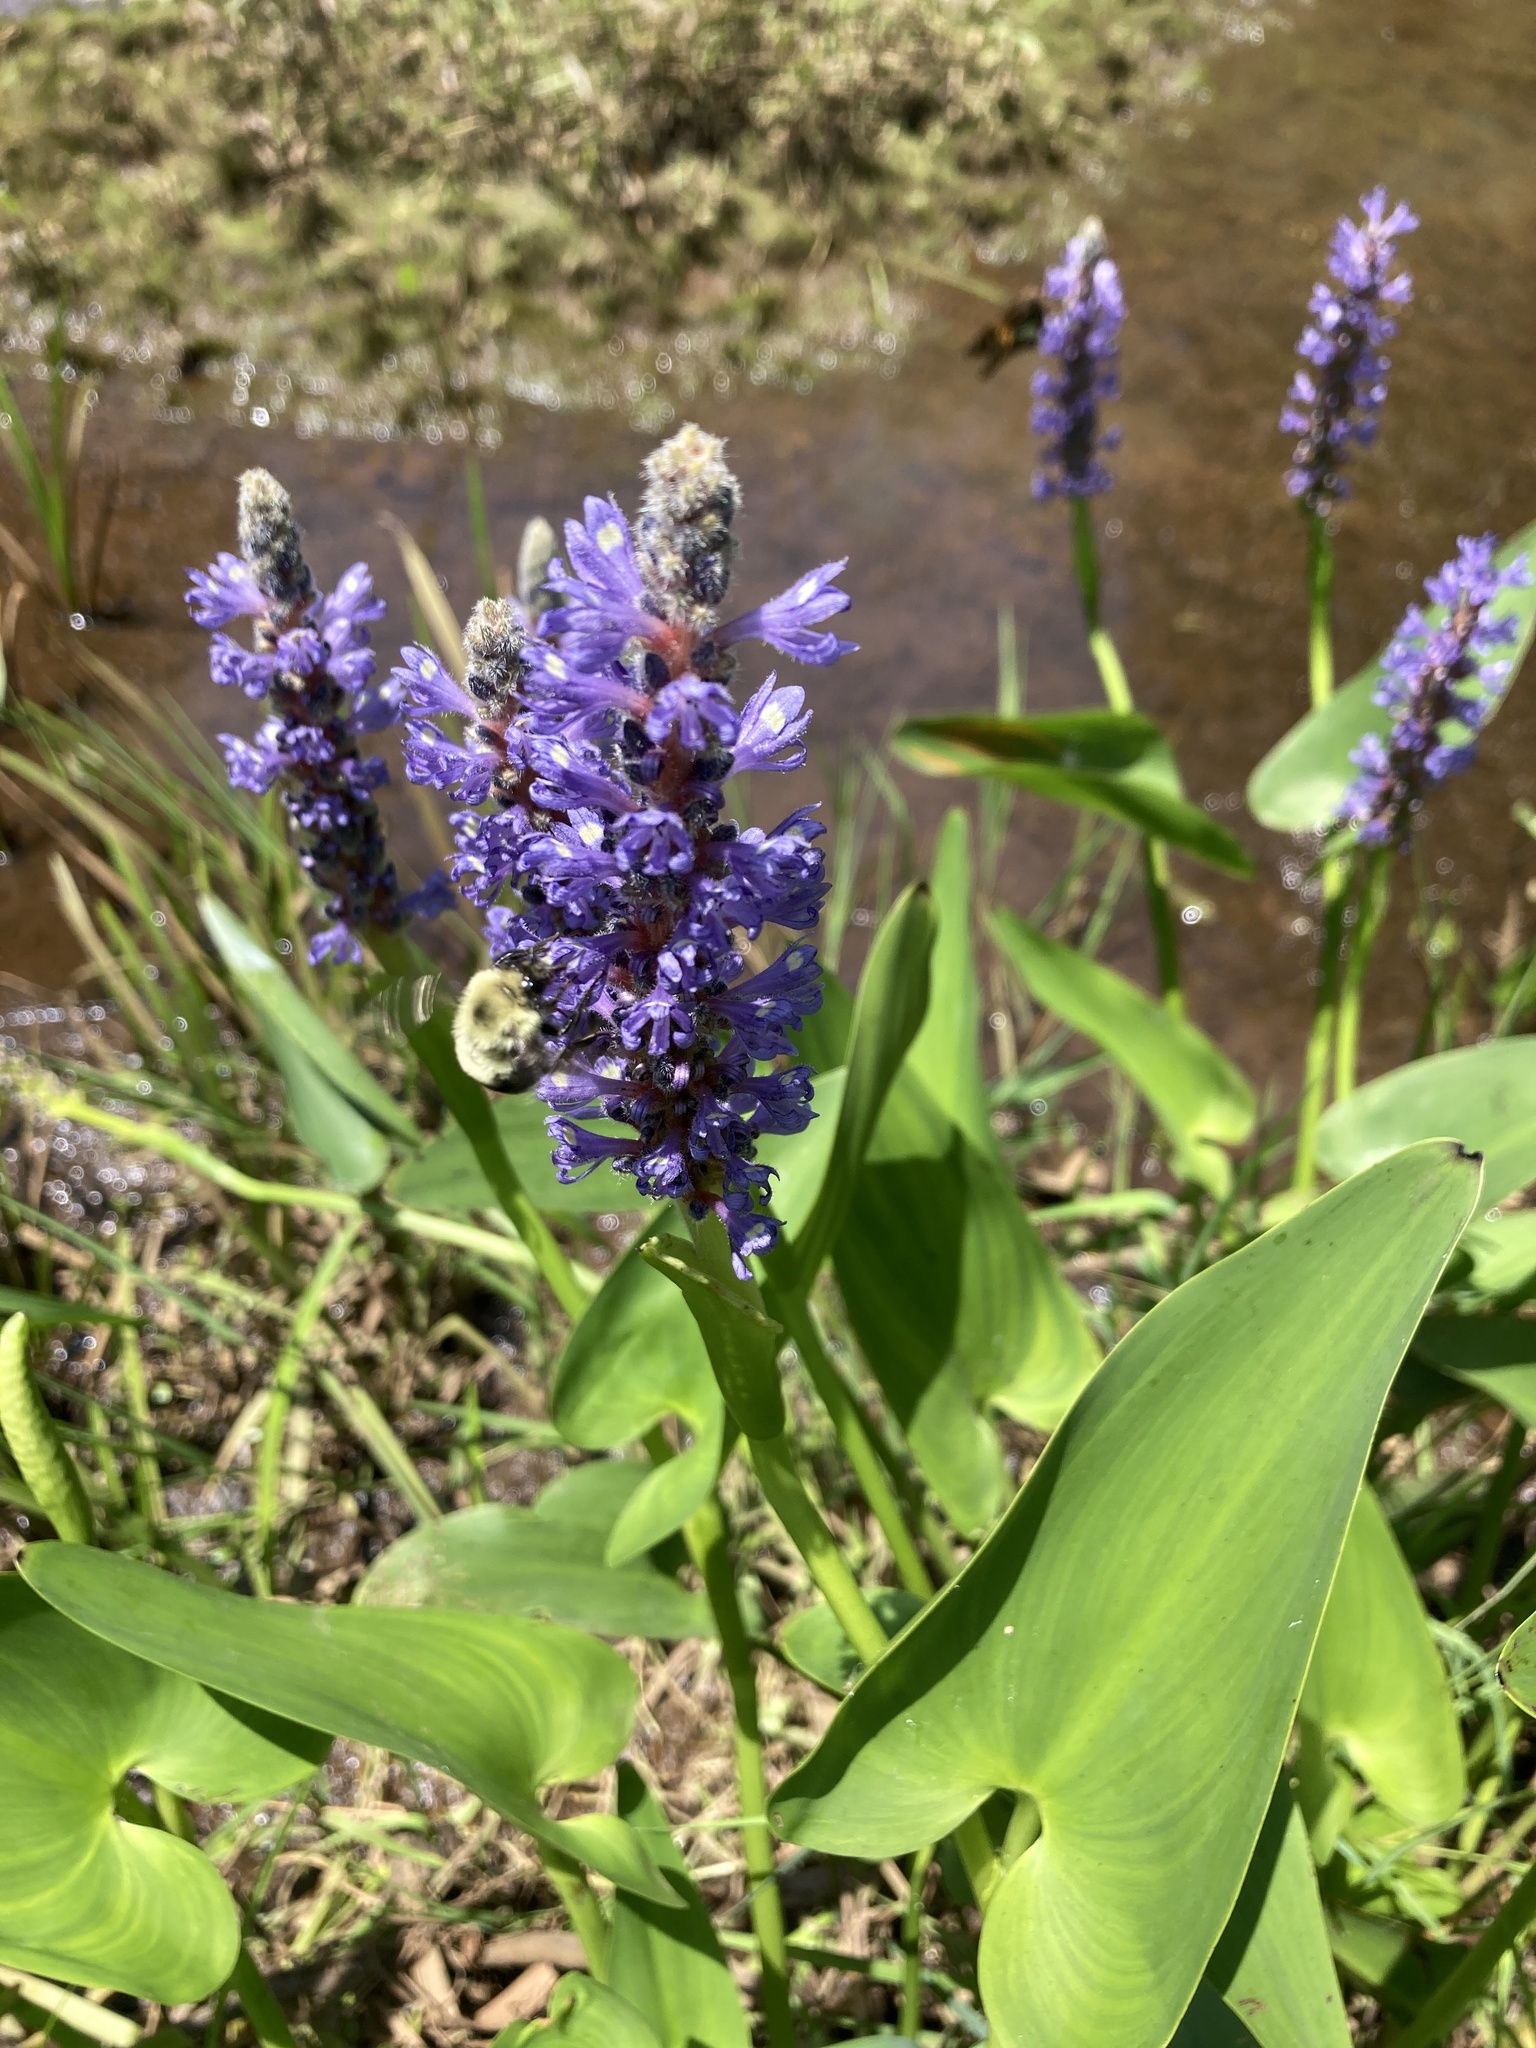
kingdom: Plantae
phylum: Tracheophyta
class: Liliopsida
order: Commelinales
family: Pontederiaceae
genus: Pontederia
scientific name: Pontederia cordata
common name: Pickerelweed
